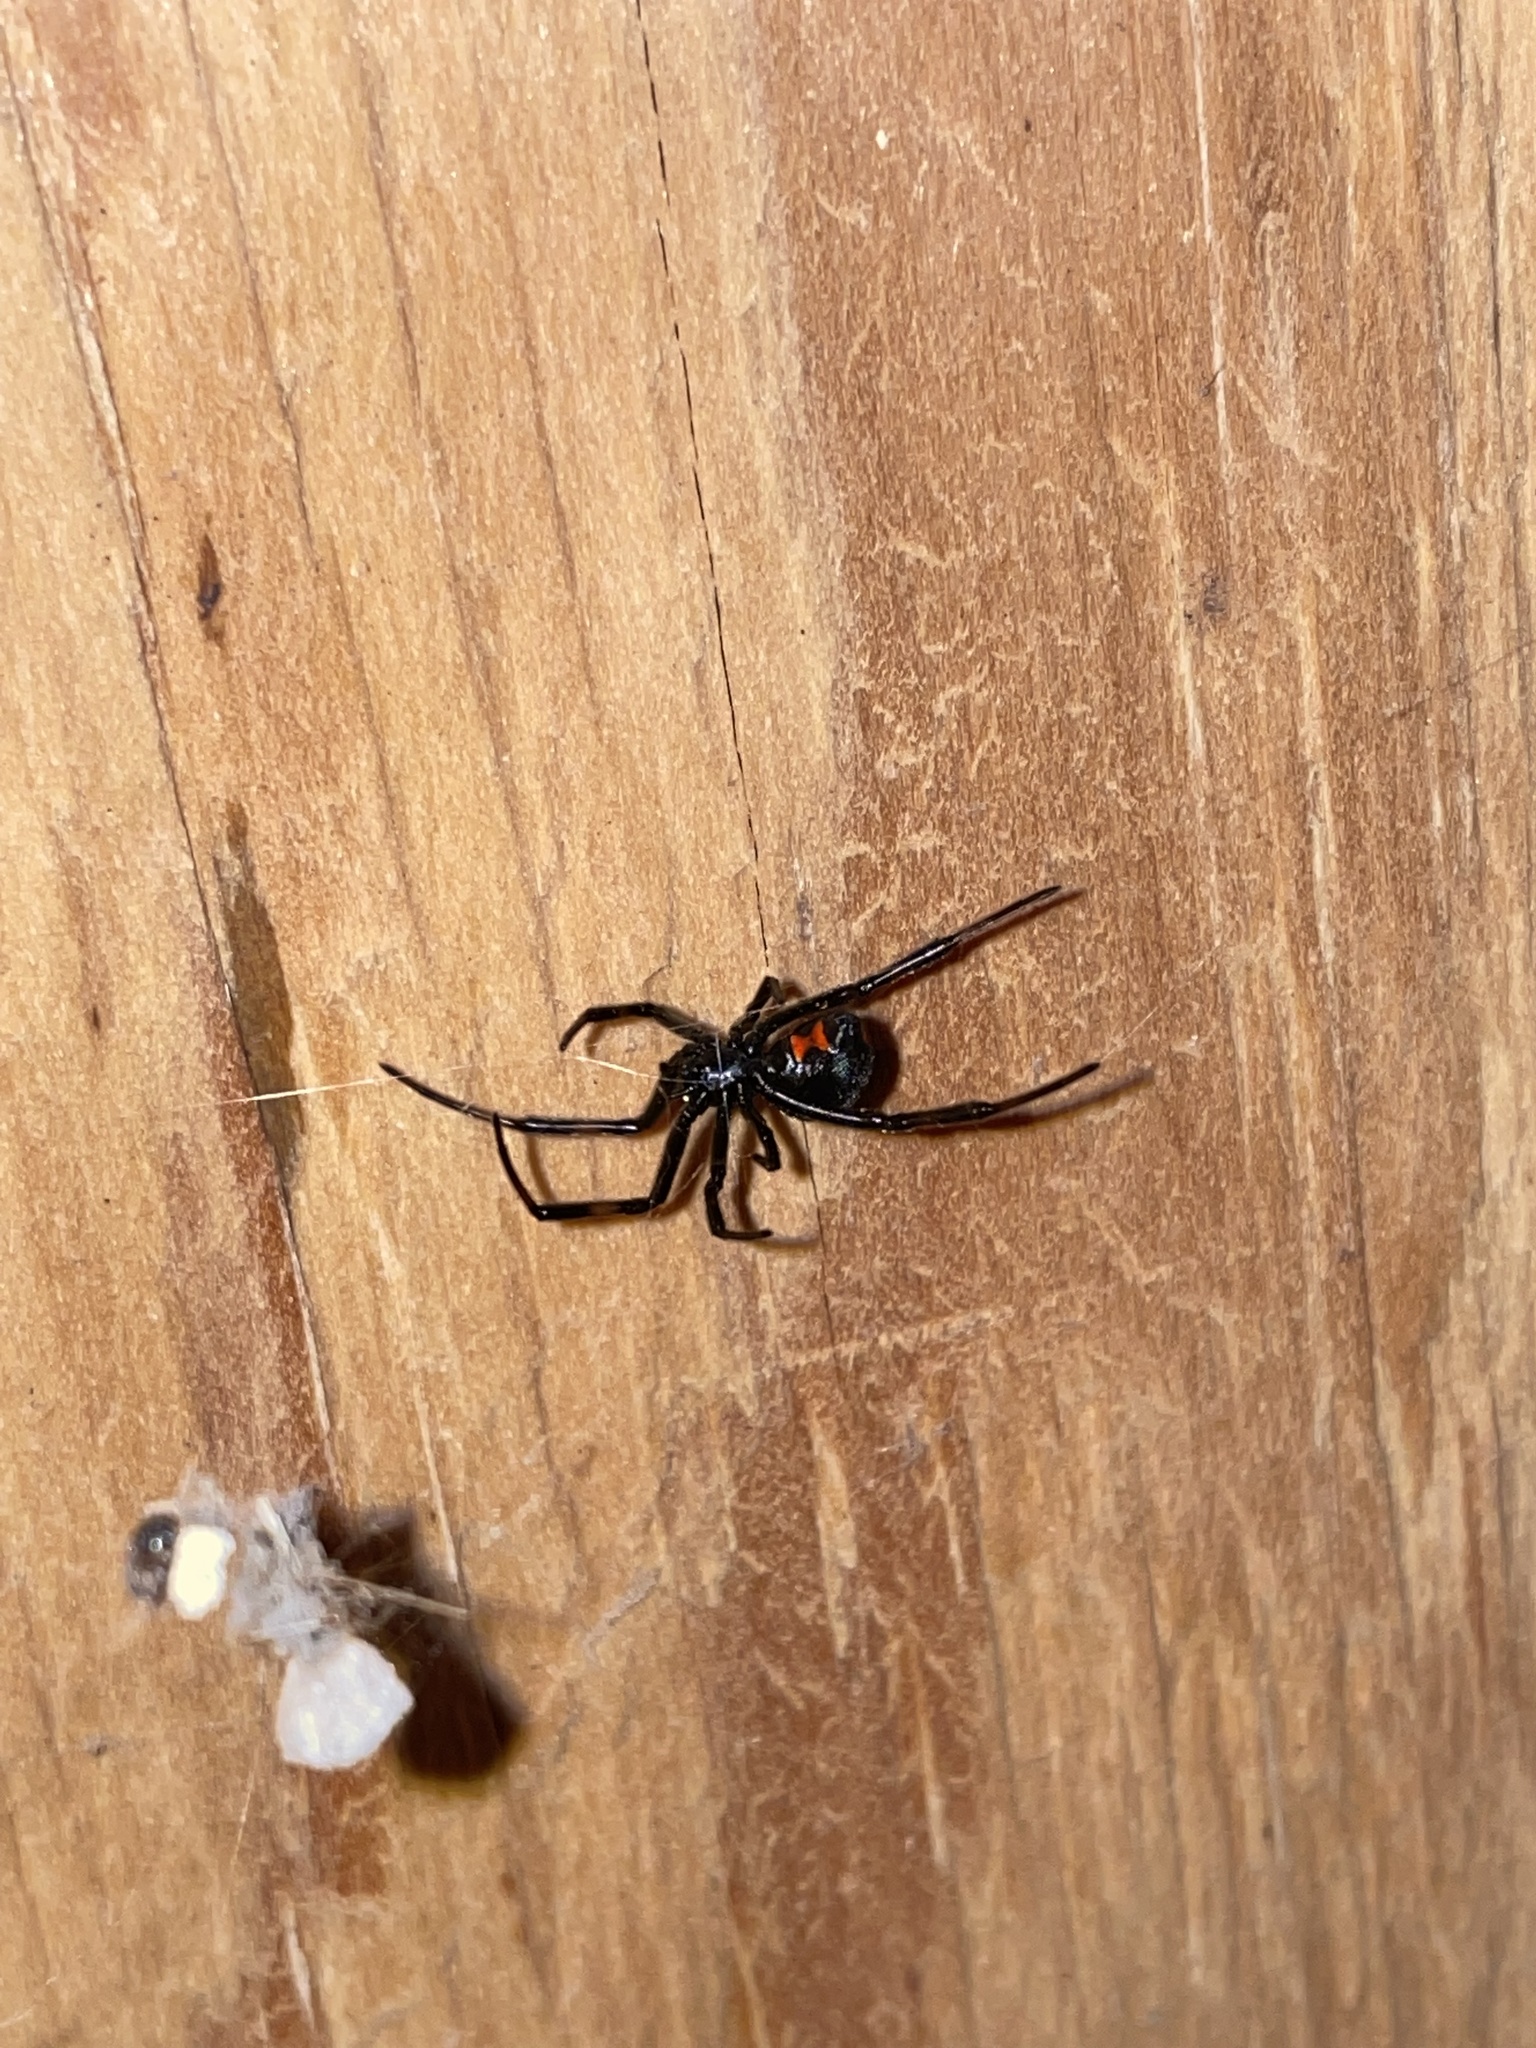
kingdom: Animalia
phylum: Arthropoda
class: Arachnida
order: Araneae
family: Theridiidae
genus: Latrodectus
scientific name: Latrodectus mactans
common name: Cobweb spiders
